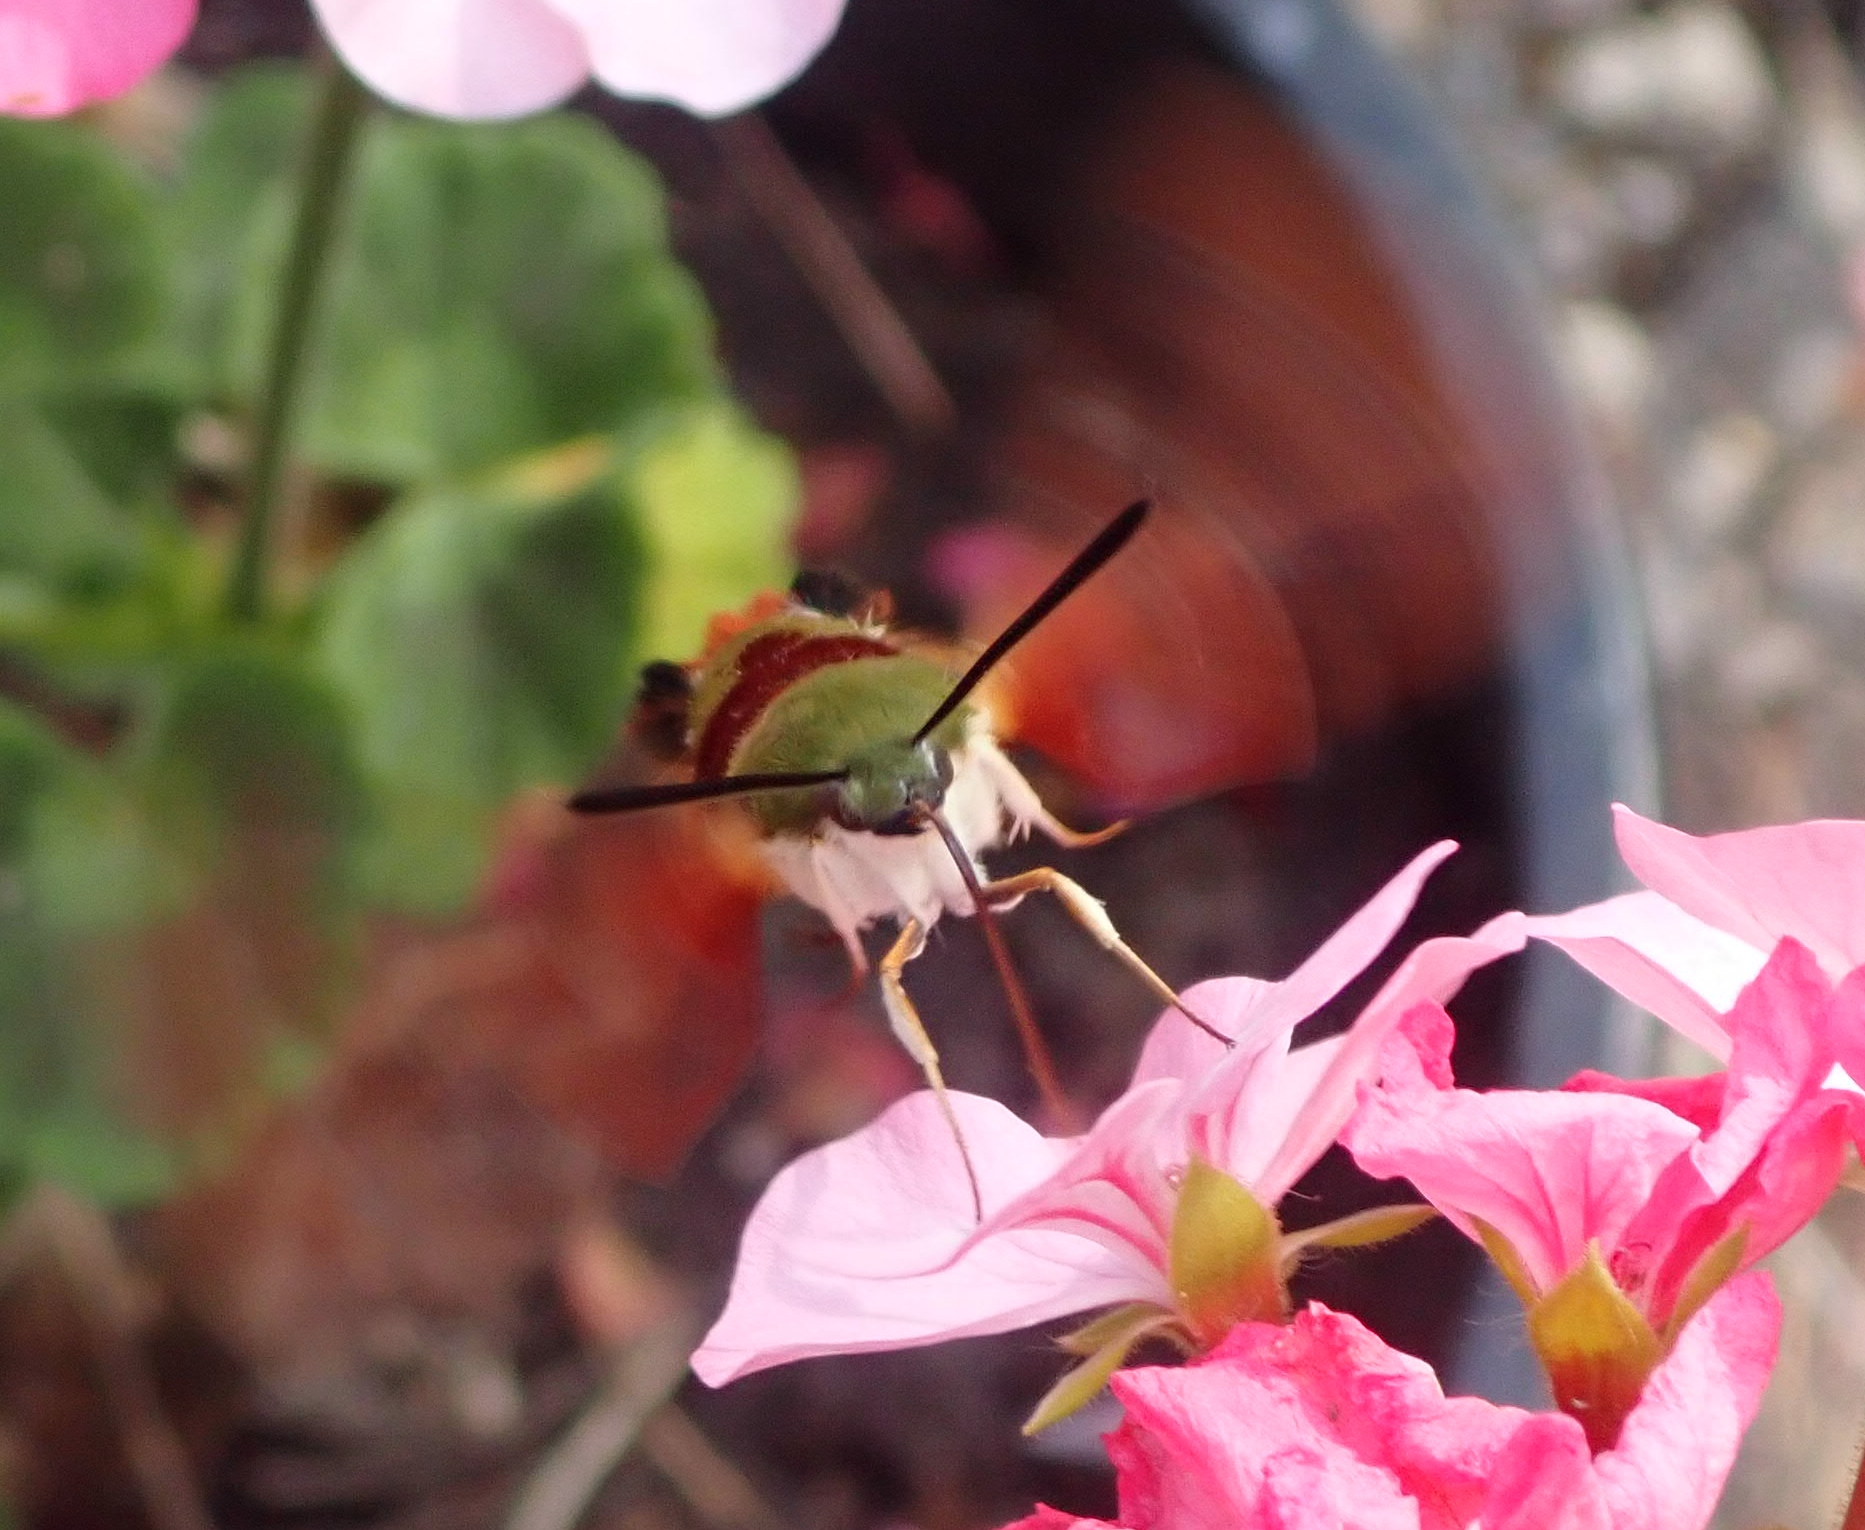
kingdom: Animalia
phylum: Arthropoda
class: Insecta
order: Lepidoptera
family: Sphingidae
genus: Hemaris
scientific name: Hemaris thysbe
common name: Common clear-wing
